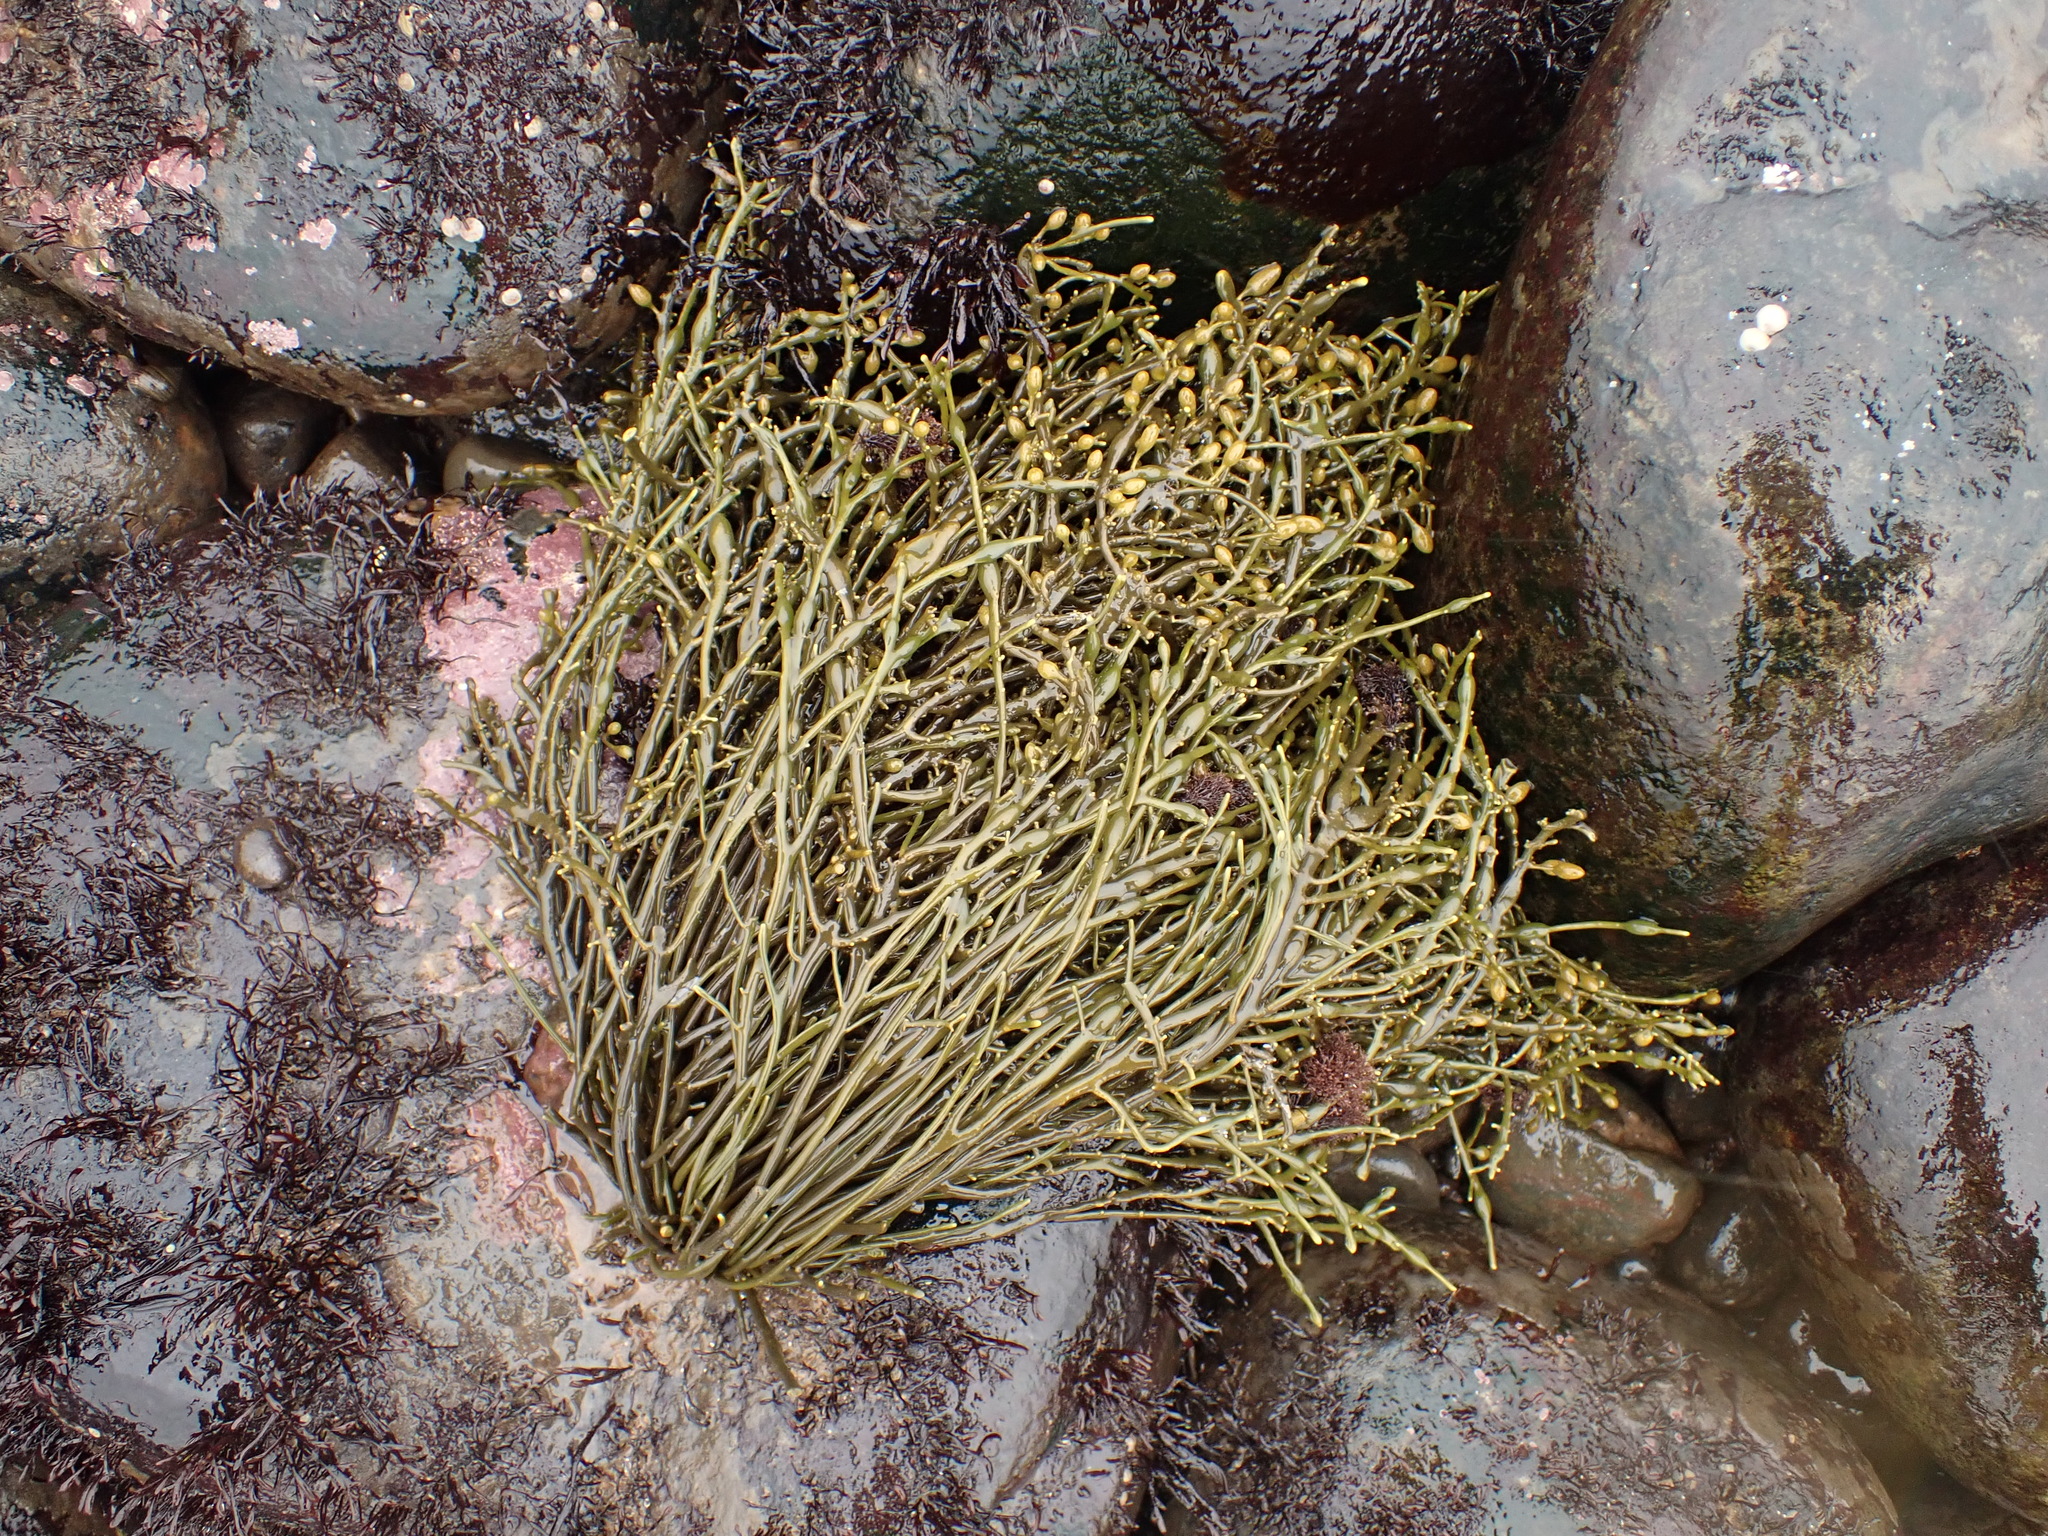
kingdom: Chromista
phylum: Ochrophyta
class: Phaeophyceae
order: Fucales
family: Fucaceae
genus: Ascophyllum
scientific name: Ascophyllum nodosum
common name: Knotted wrack
